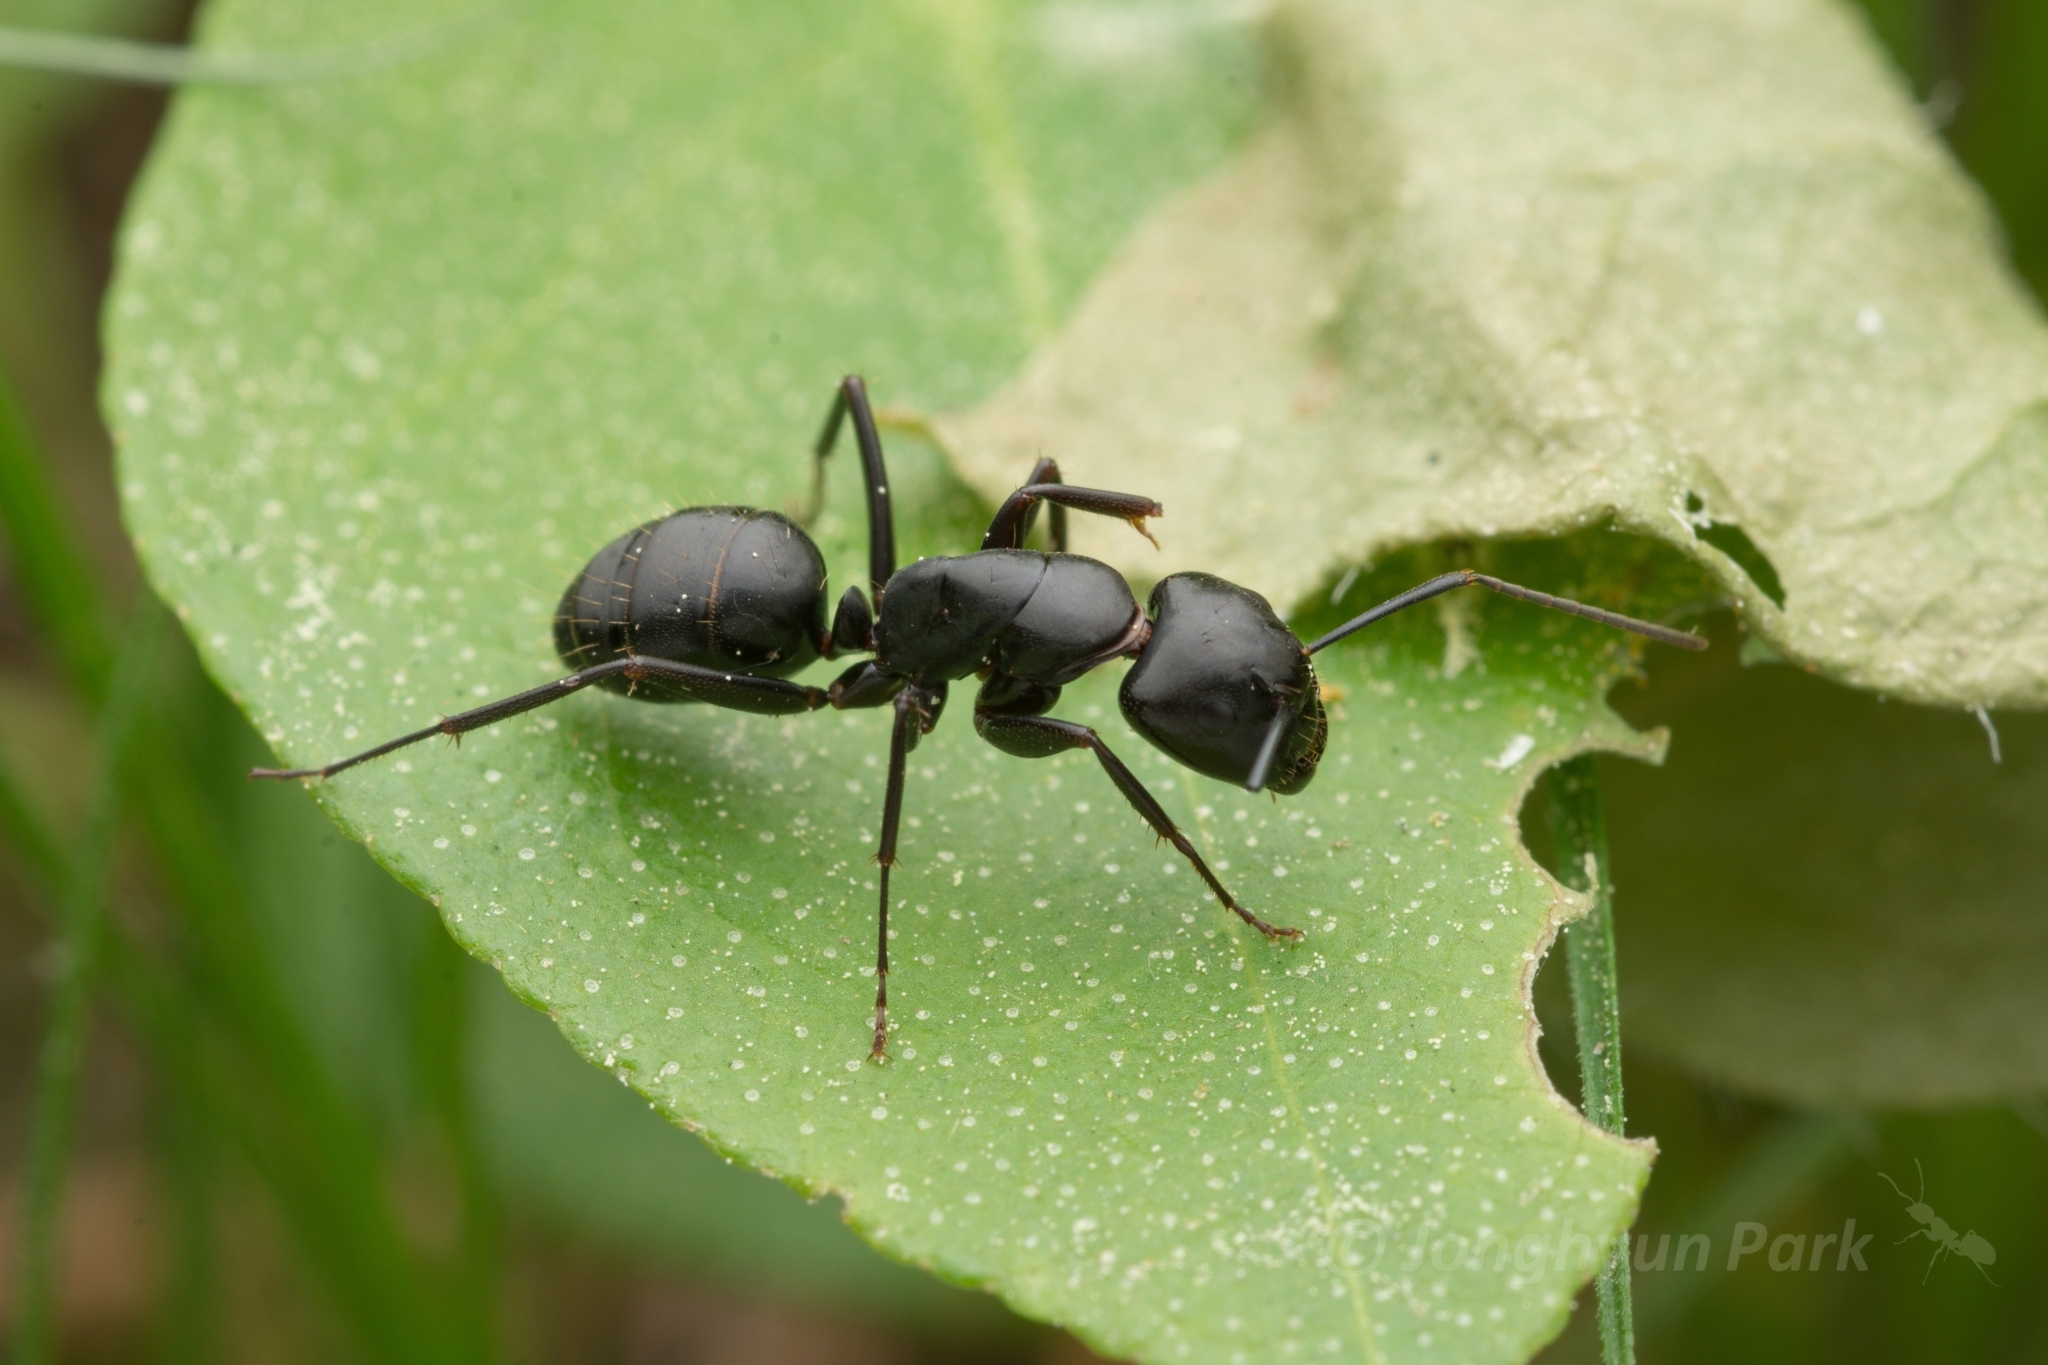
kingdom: Animalia
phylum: Arthropoda
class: Insecta
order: Hymenoptera
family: Formicidae
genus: Camponotus
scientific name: Camponotus concavus
